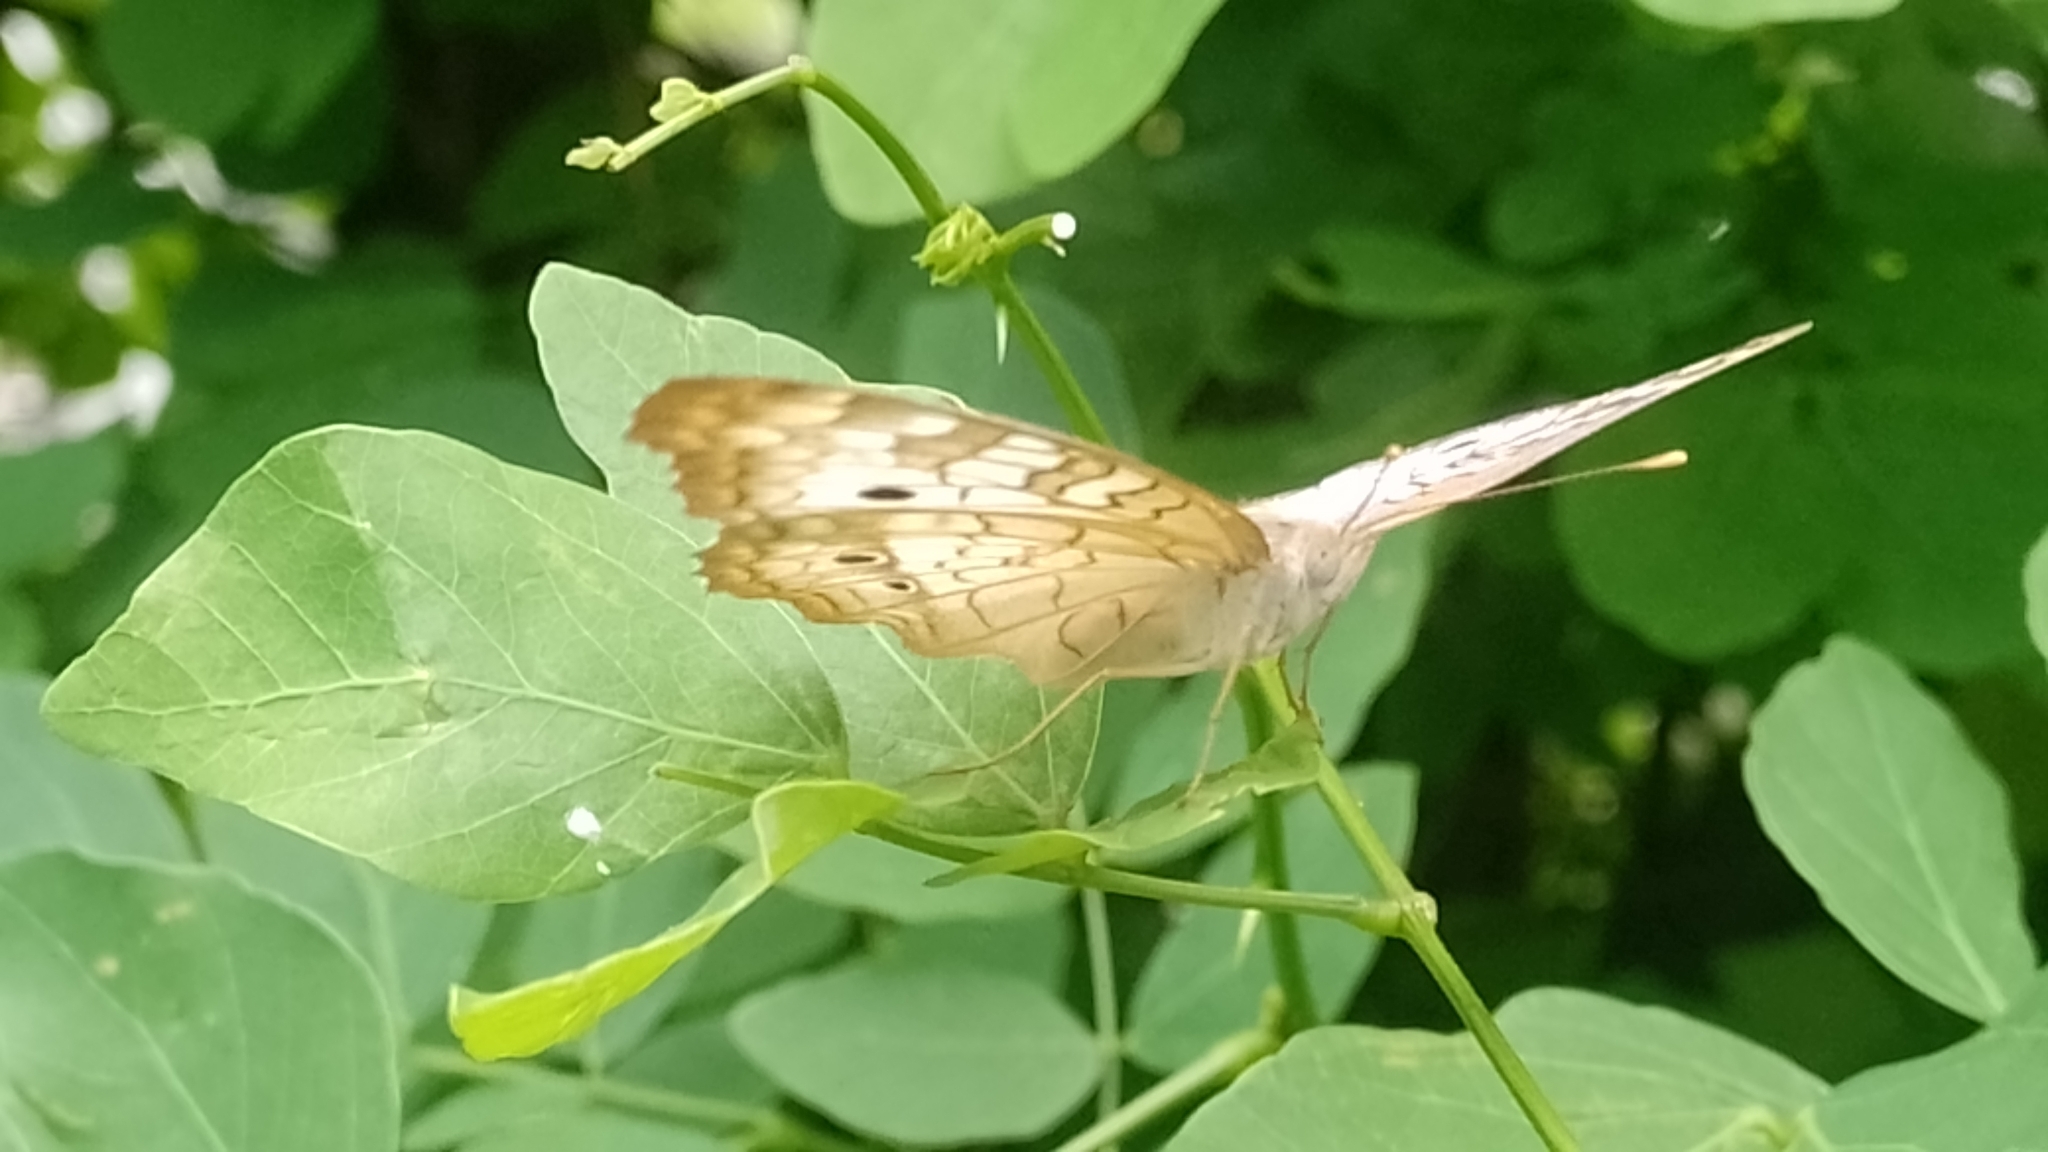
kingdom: Animalia
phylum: Arthropoda
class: Insecta
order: Lepidoptera
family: Nymphalidae
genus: Anartia
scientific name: Anartia jatrophae
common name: White peacock
